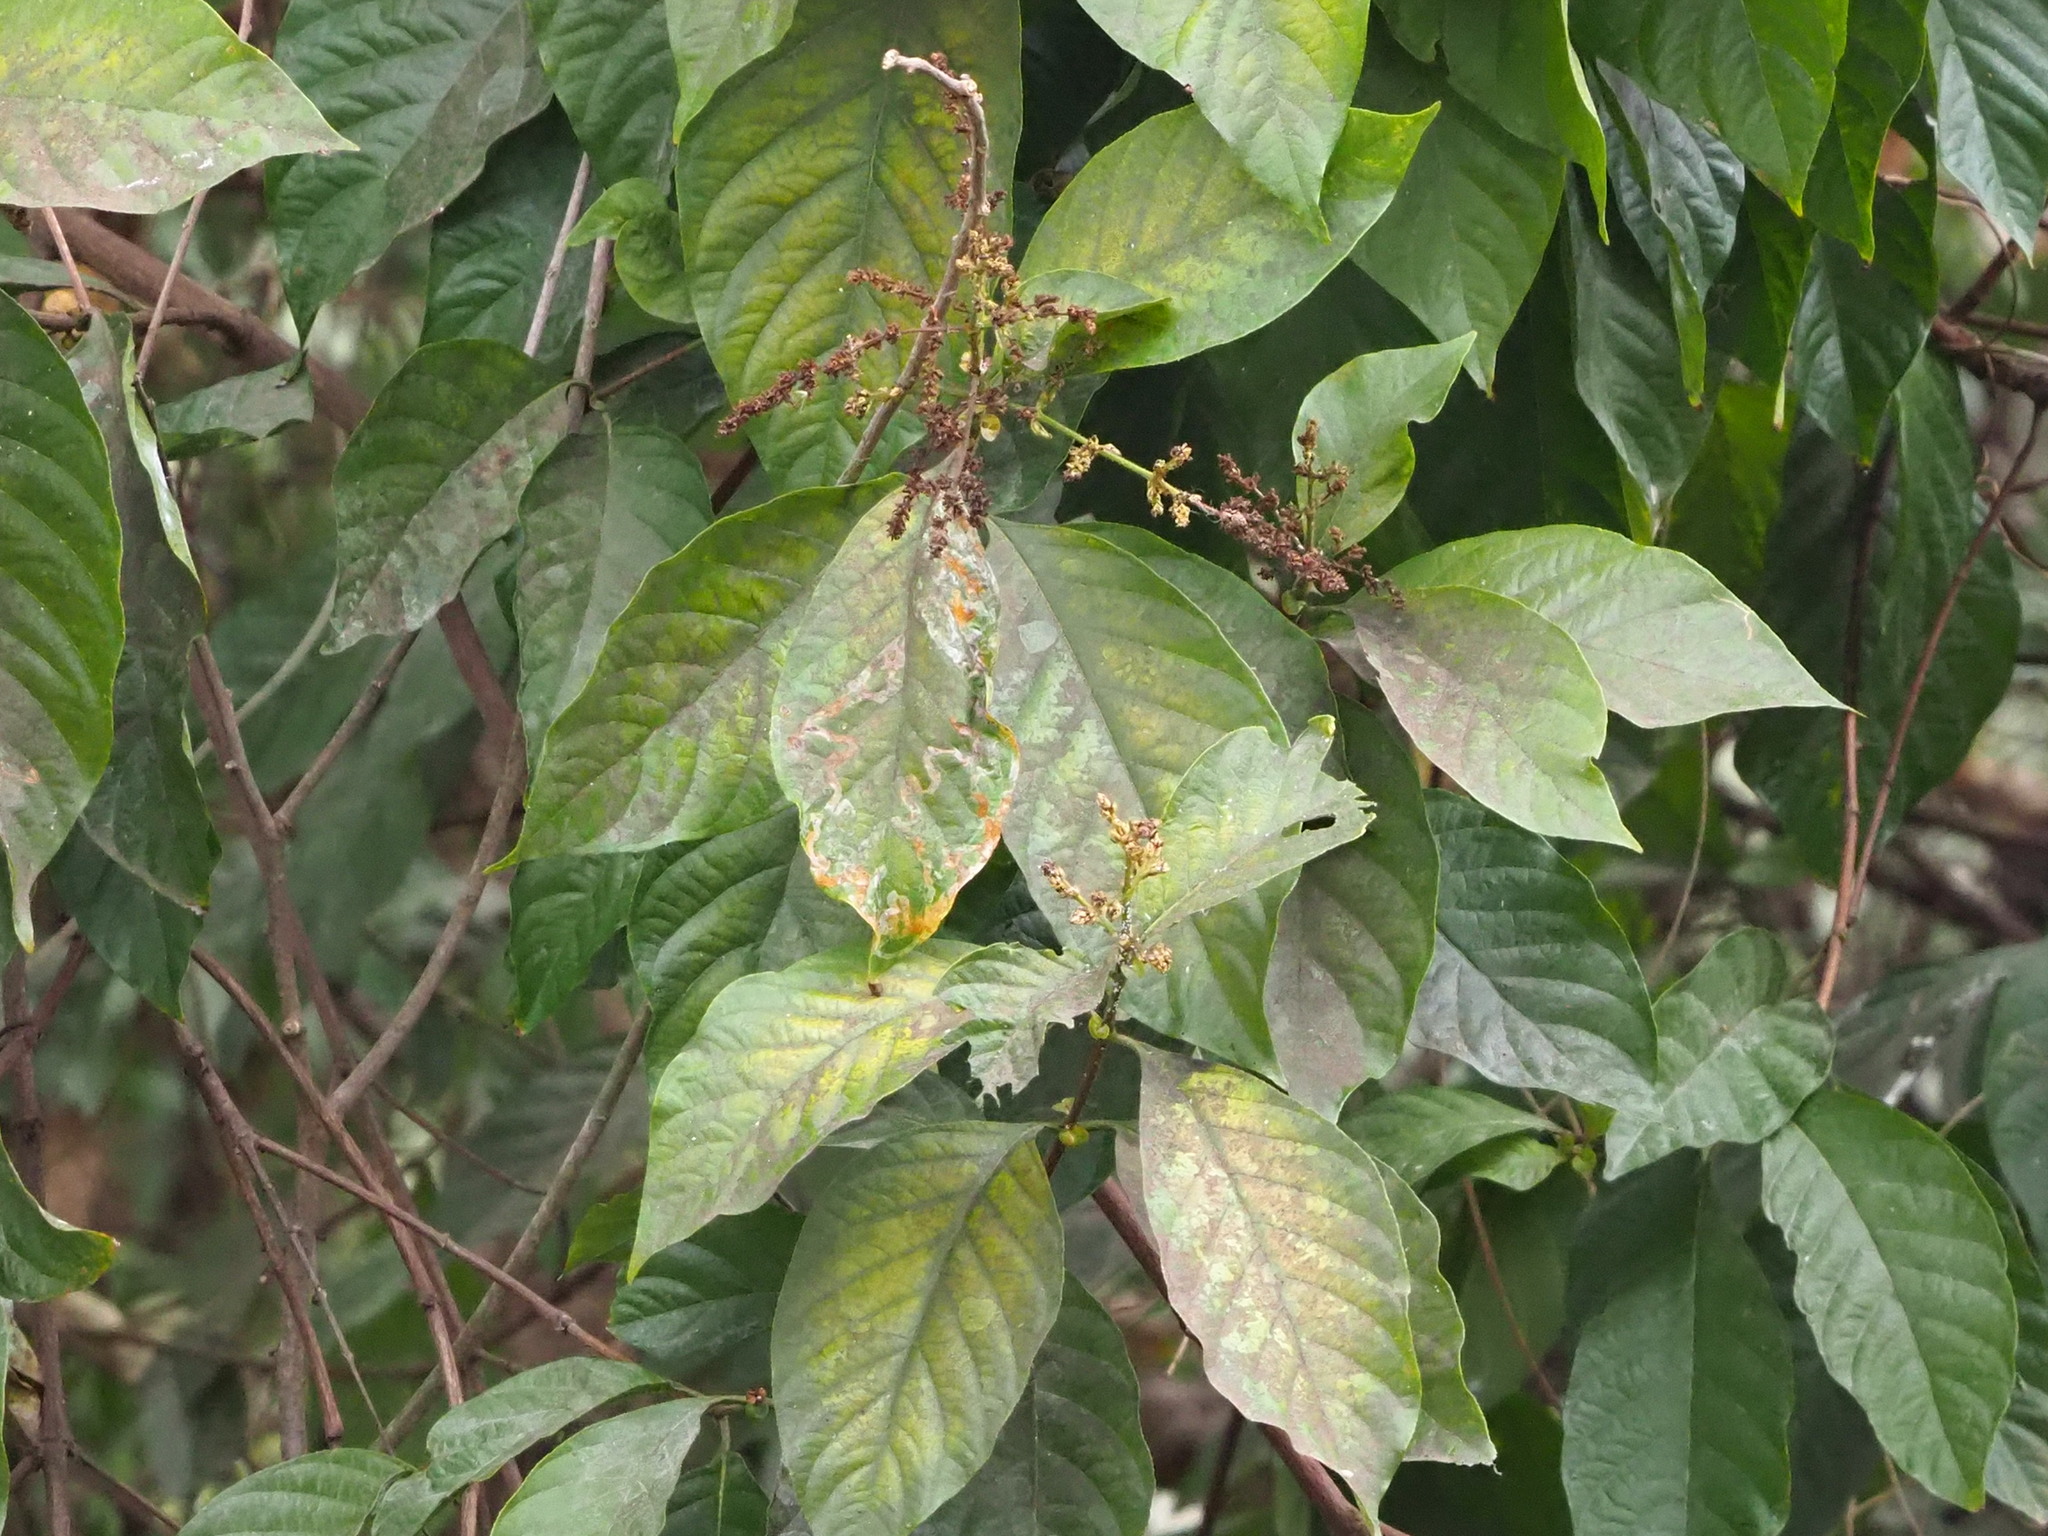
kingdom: Plantae
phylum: Tracheophyta
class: Magnoliopsida
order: Gentianales
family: Rubiaceae
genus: Wendlandia
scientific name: Wendlandia uvariifolia
